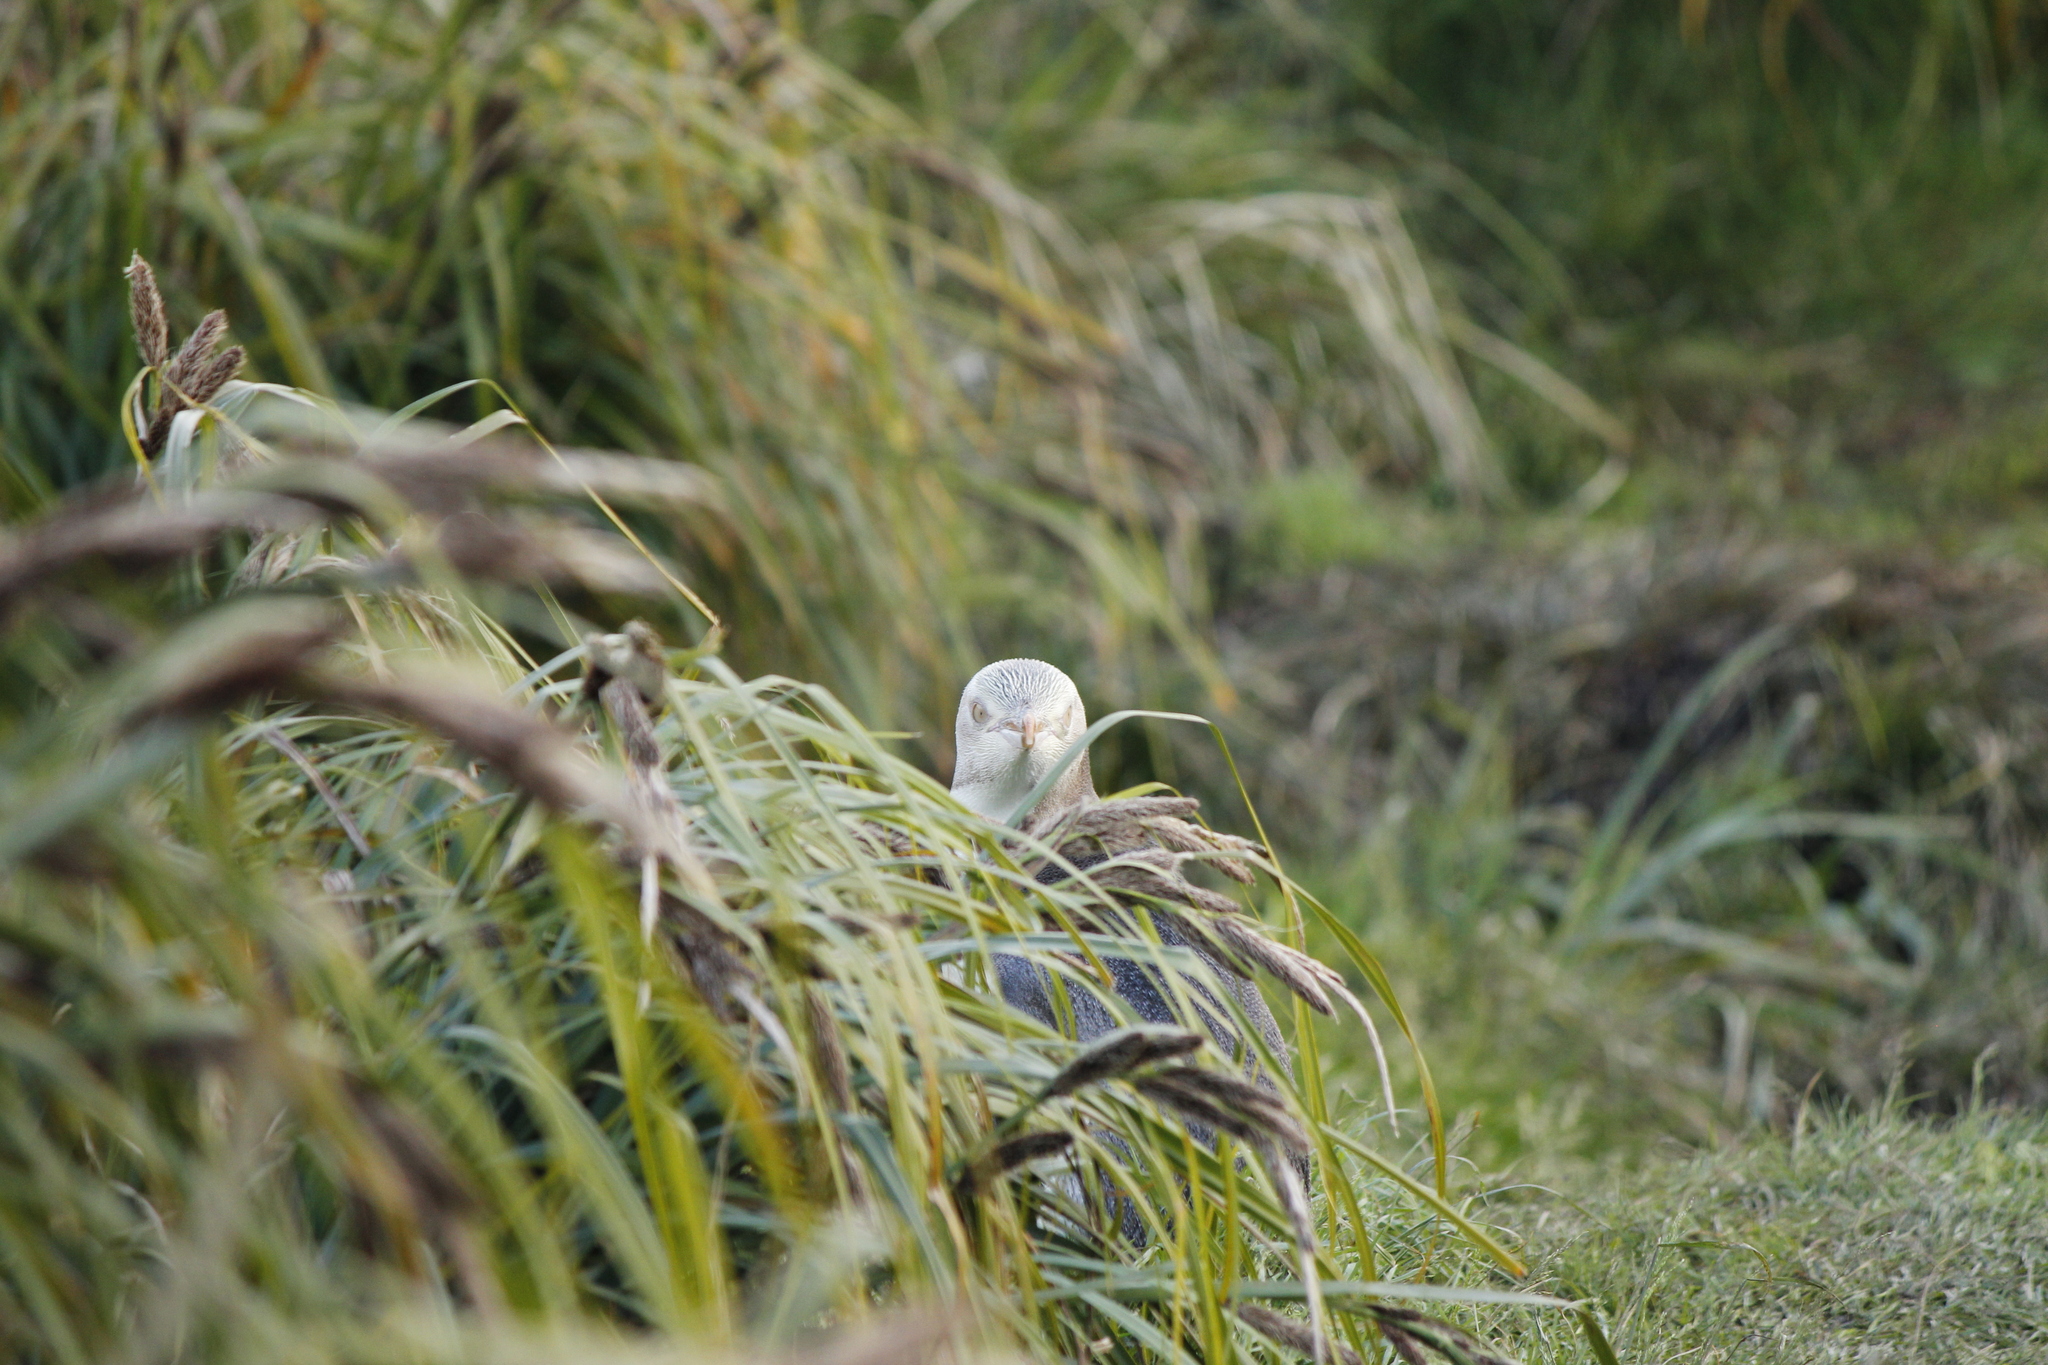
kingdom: Animalia
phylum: Chordata
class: Aves
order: Sphenisciformes
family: Spheniscidae
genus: Megadyptes
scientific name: Megadyptes antipodes
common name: Yellow-eyed penguin
